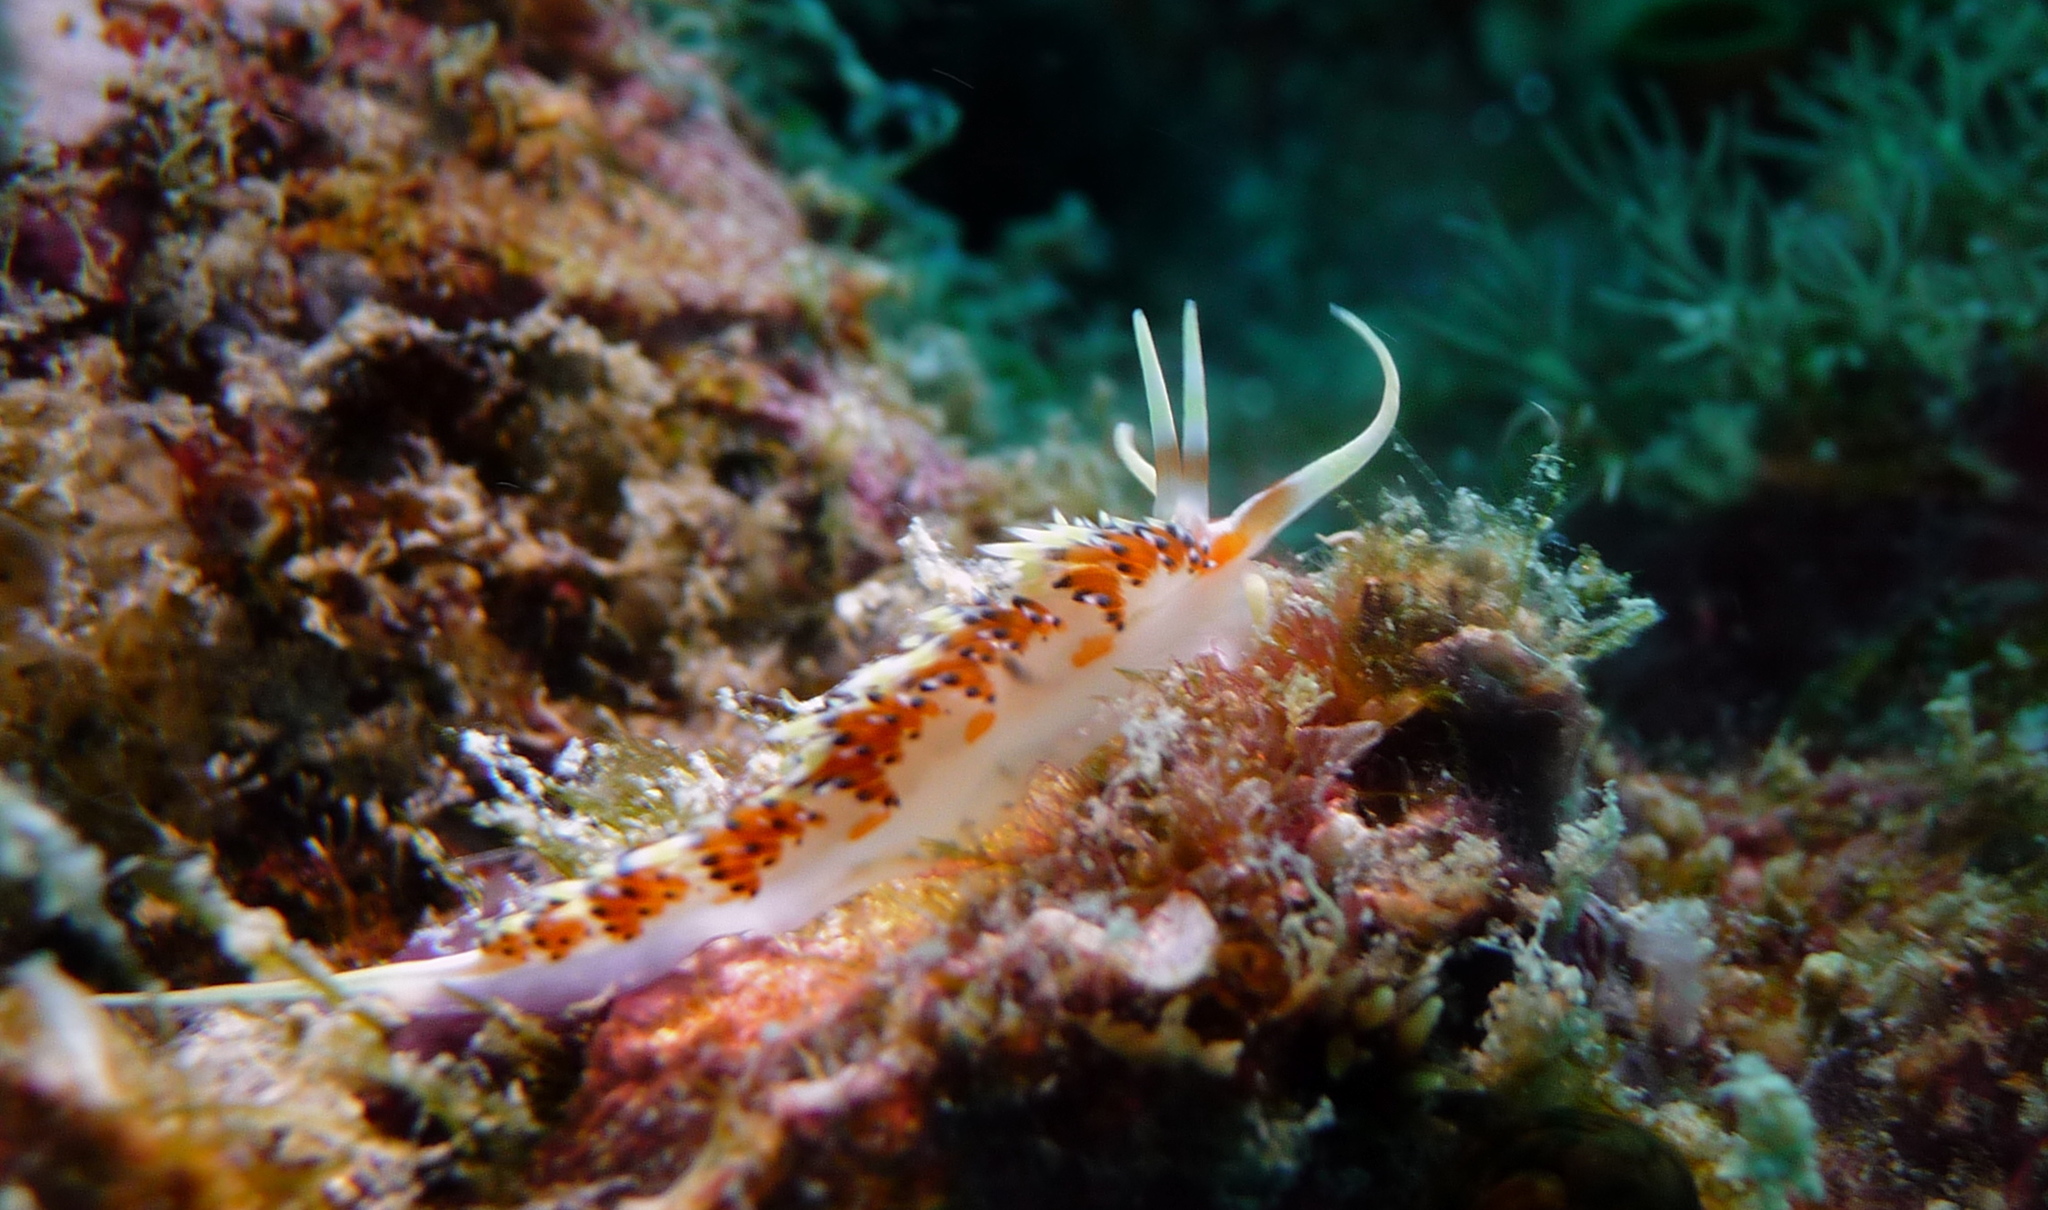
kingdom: Animalia
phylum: Mollusca
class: Gastropoda
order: Nudibranchia
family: Facelinidae
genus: Caloria
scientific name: Caloria indica
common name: Sea slug
